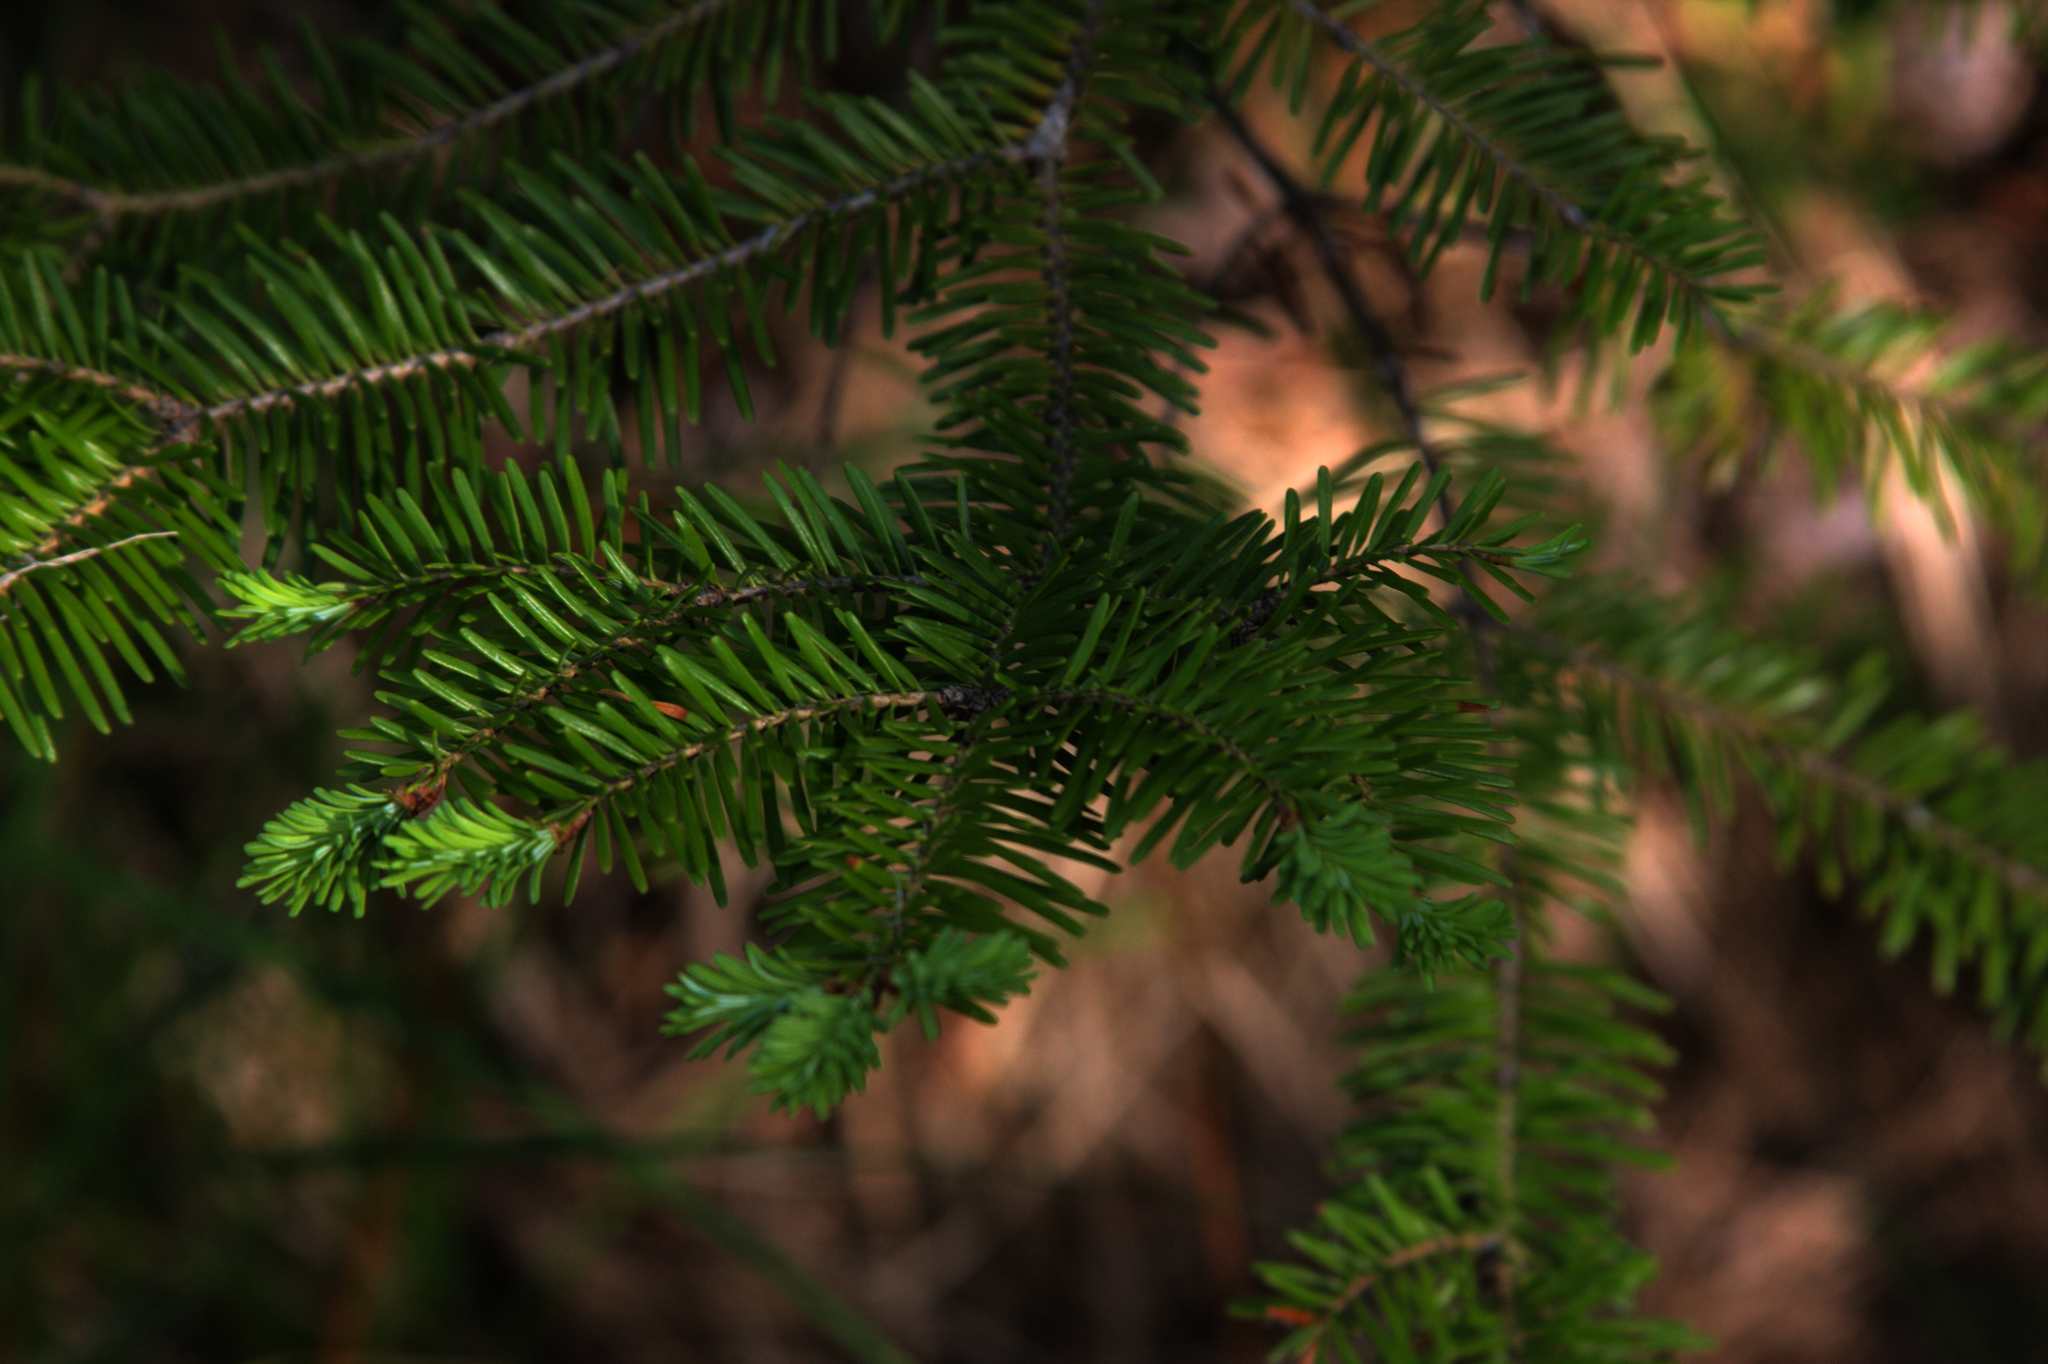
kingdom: Plantae
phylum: Tracheophyta
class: Pinopsida
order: Pinales
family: Pinaceae
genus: Abies
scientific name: Abies balsamea
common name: Balsam fir
